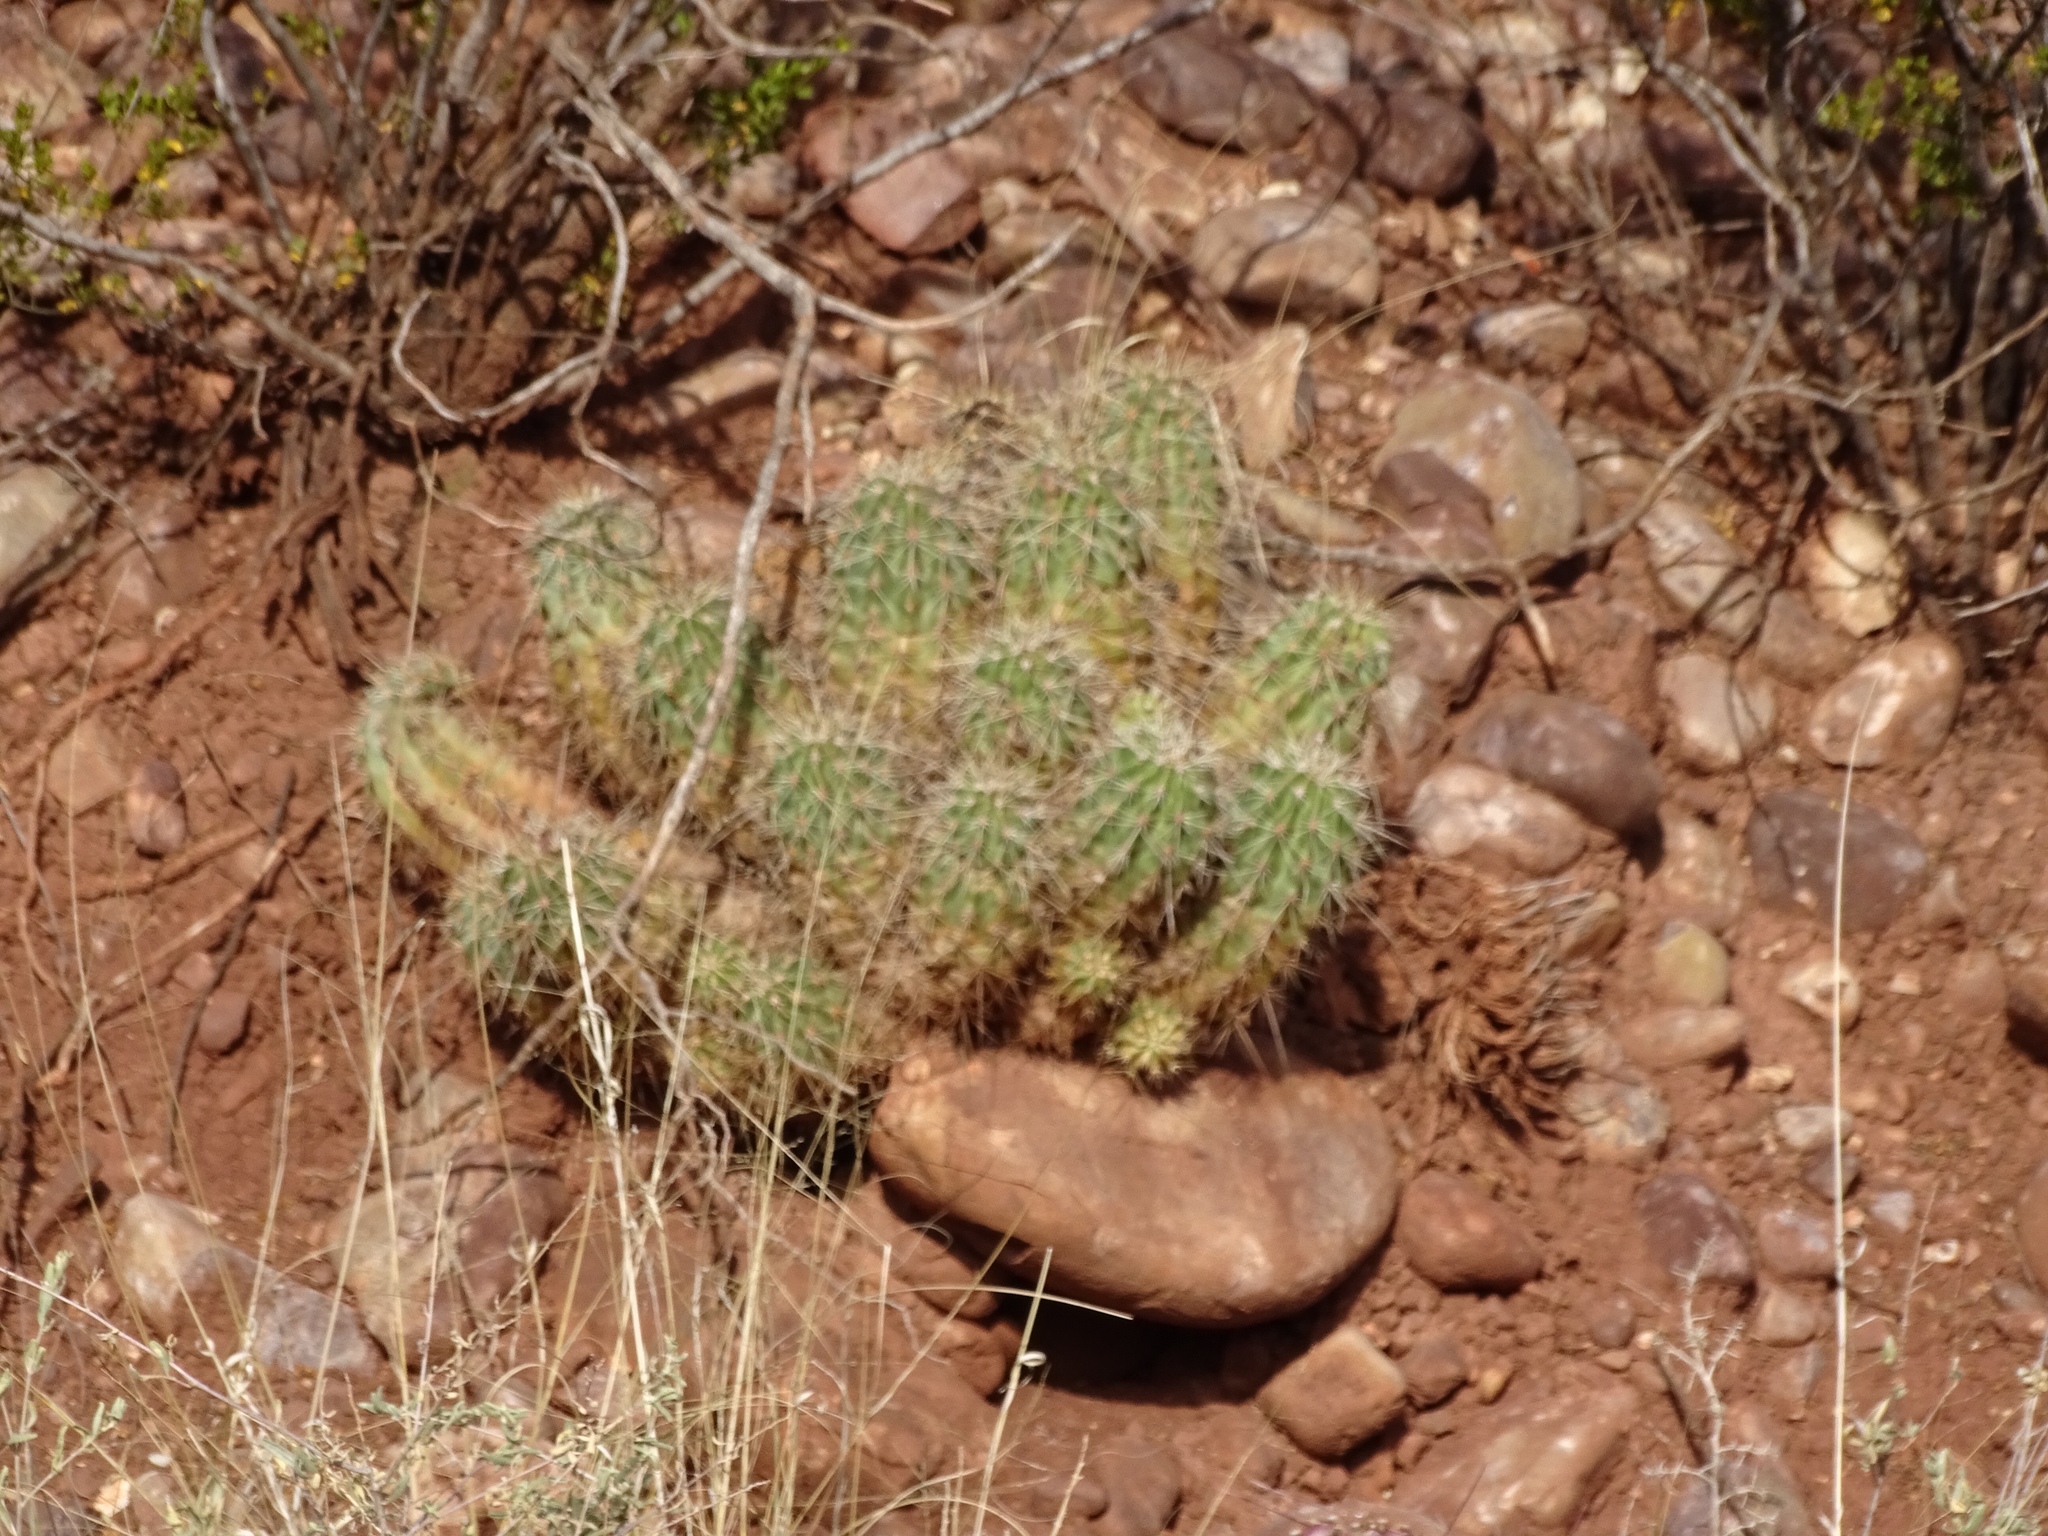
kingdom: Plantae
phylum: Tracheophyta
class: Magnoliopsida
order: Caryophyllales
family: Cactaceae
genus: Echinocereus
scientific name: Echinocereus coccineus
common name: Scarlet hedgehog cactus
